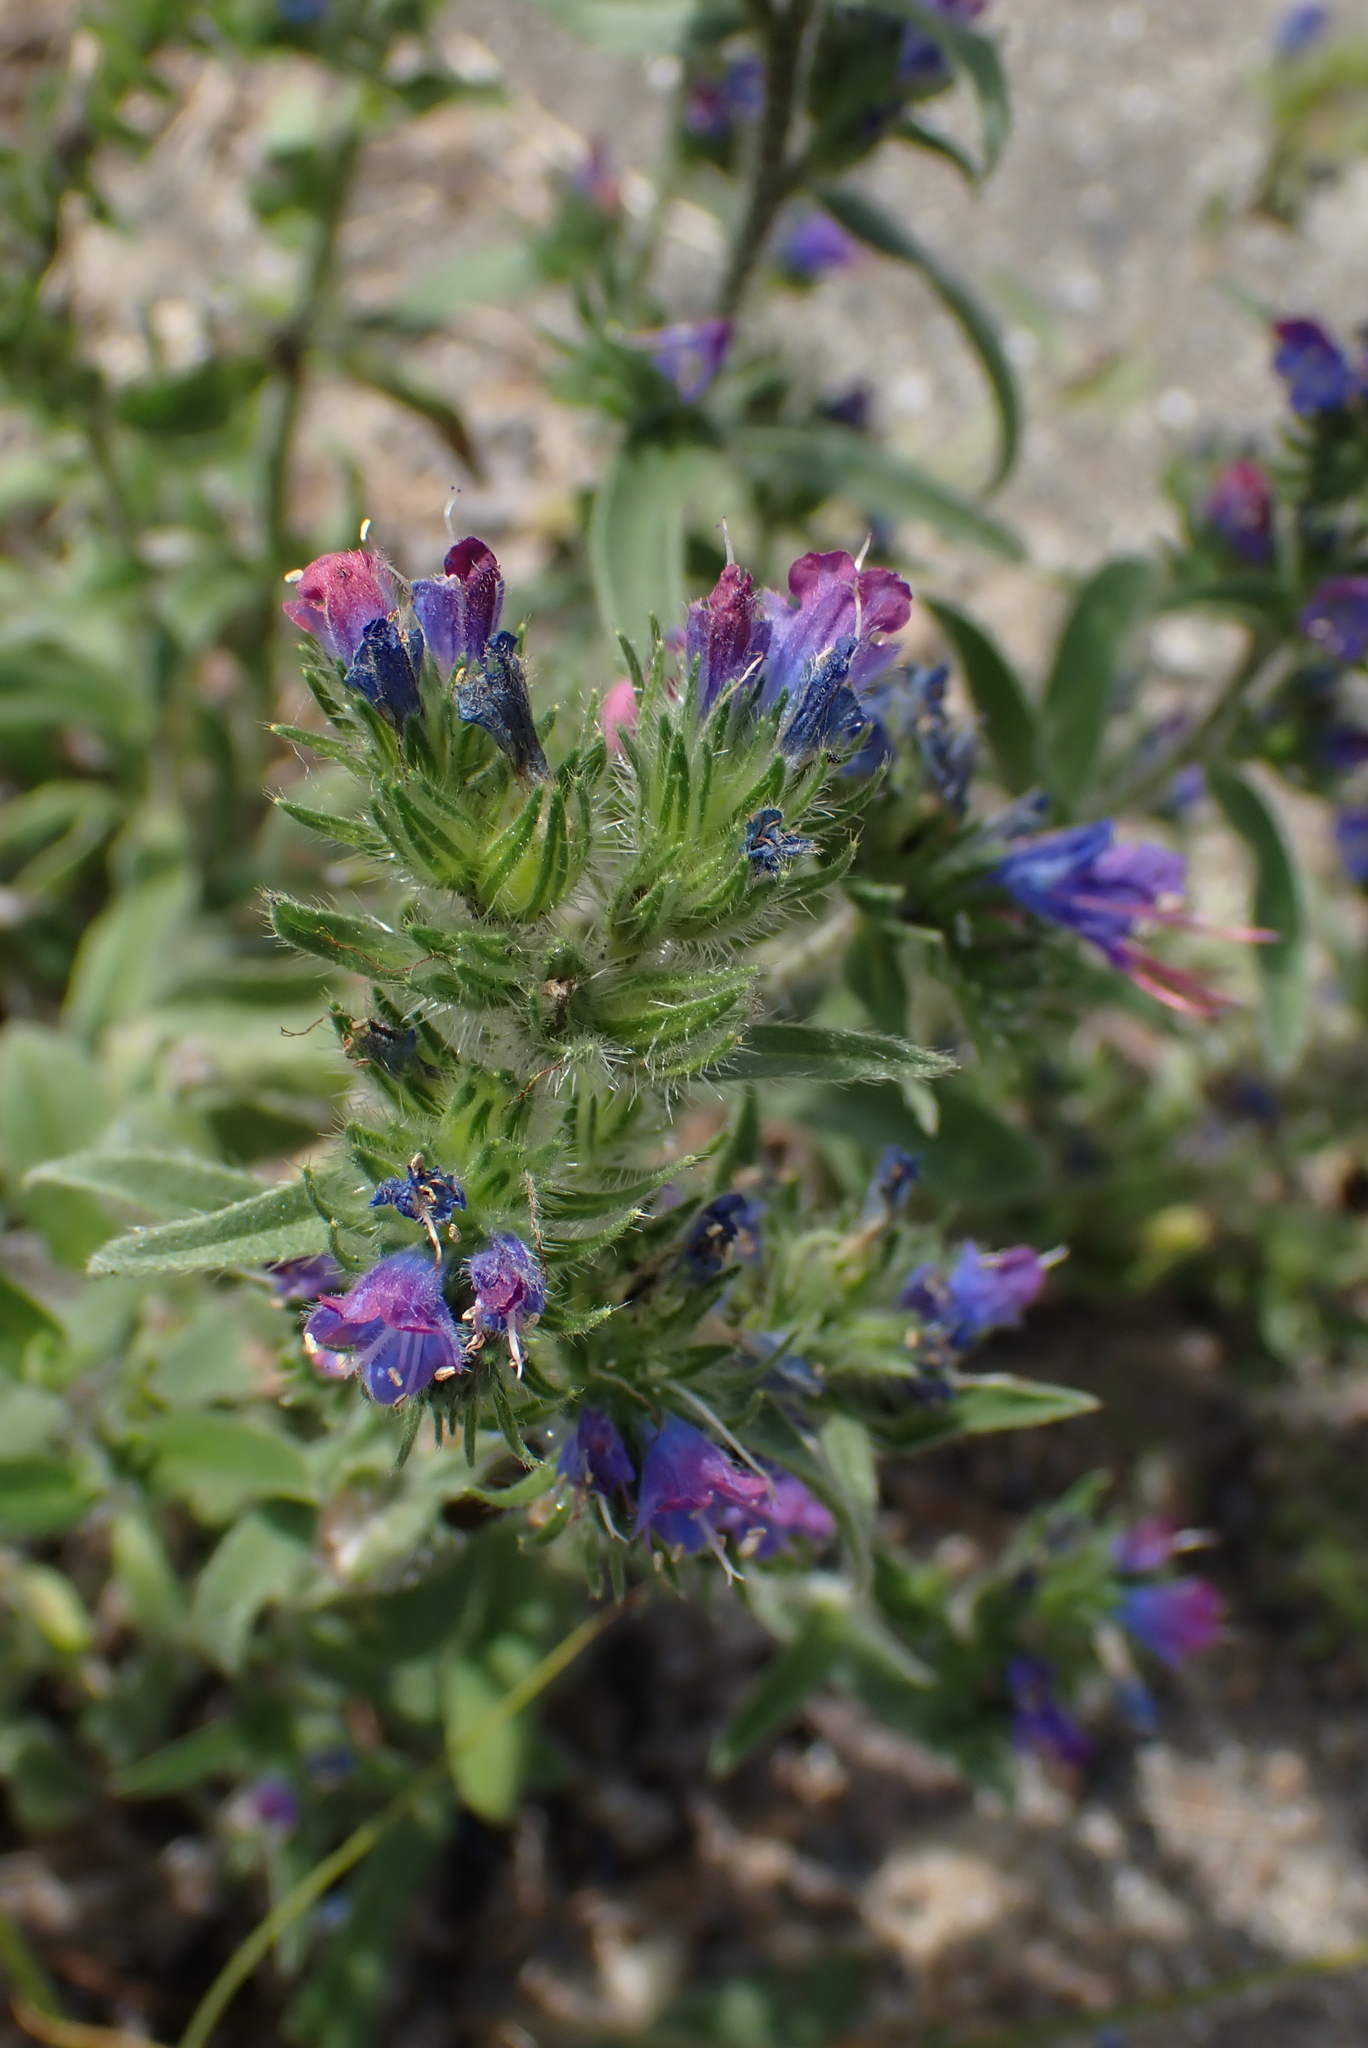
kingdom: Plantae
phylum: Tracheophyta
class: Magnoliopsida
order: Boraginales
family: Boraginaceae
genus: Echium
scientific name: Echium vulgare
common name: Common viper's bugloss
